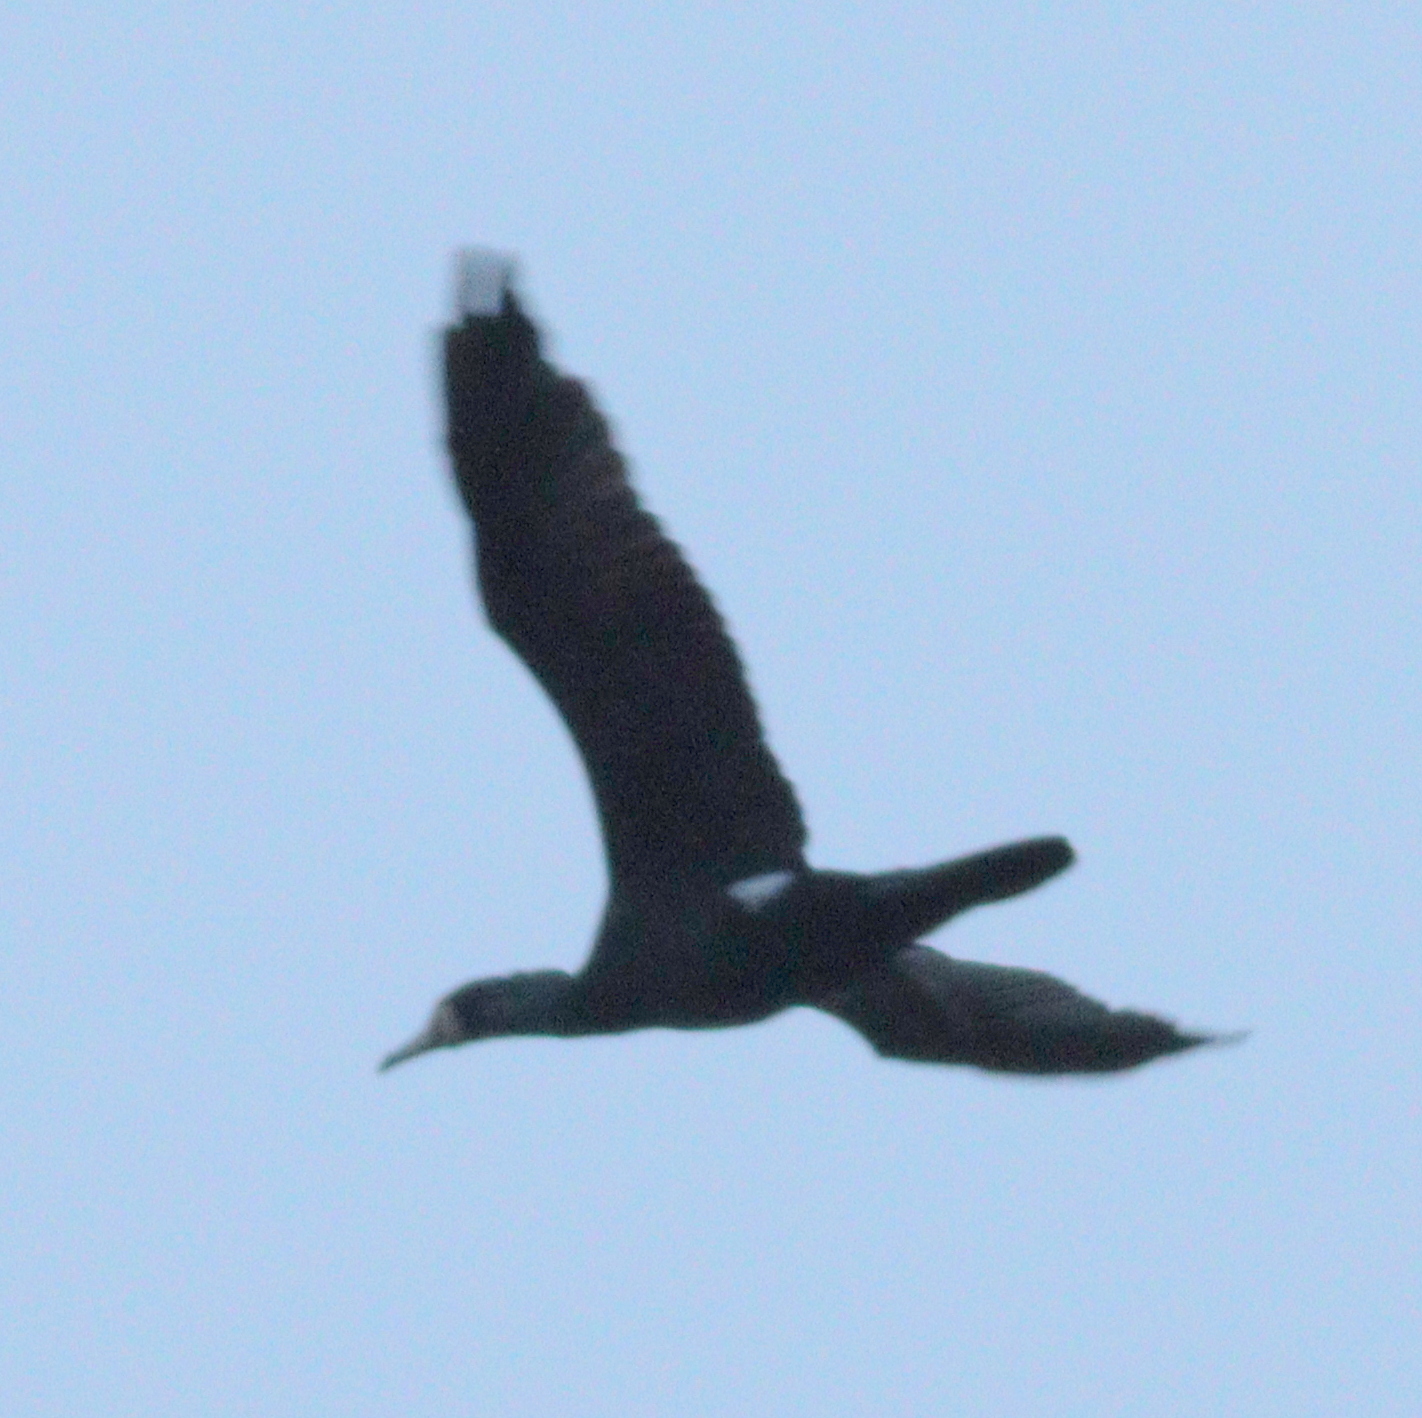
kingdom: Animalia
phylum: Chordata
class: Aves
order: Suliformes
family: Phalacrocoracidae
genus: Phalacrocorax
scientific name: Phalacrocorax carbo
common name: Great cormorant
